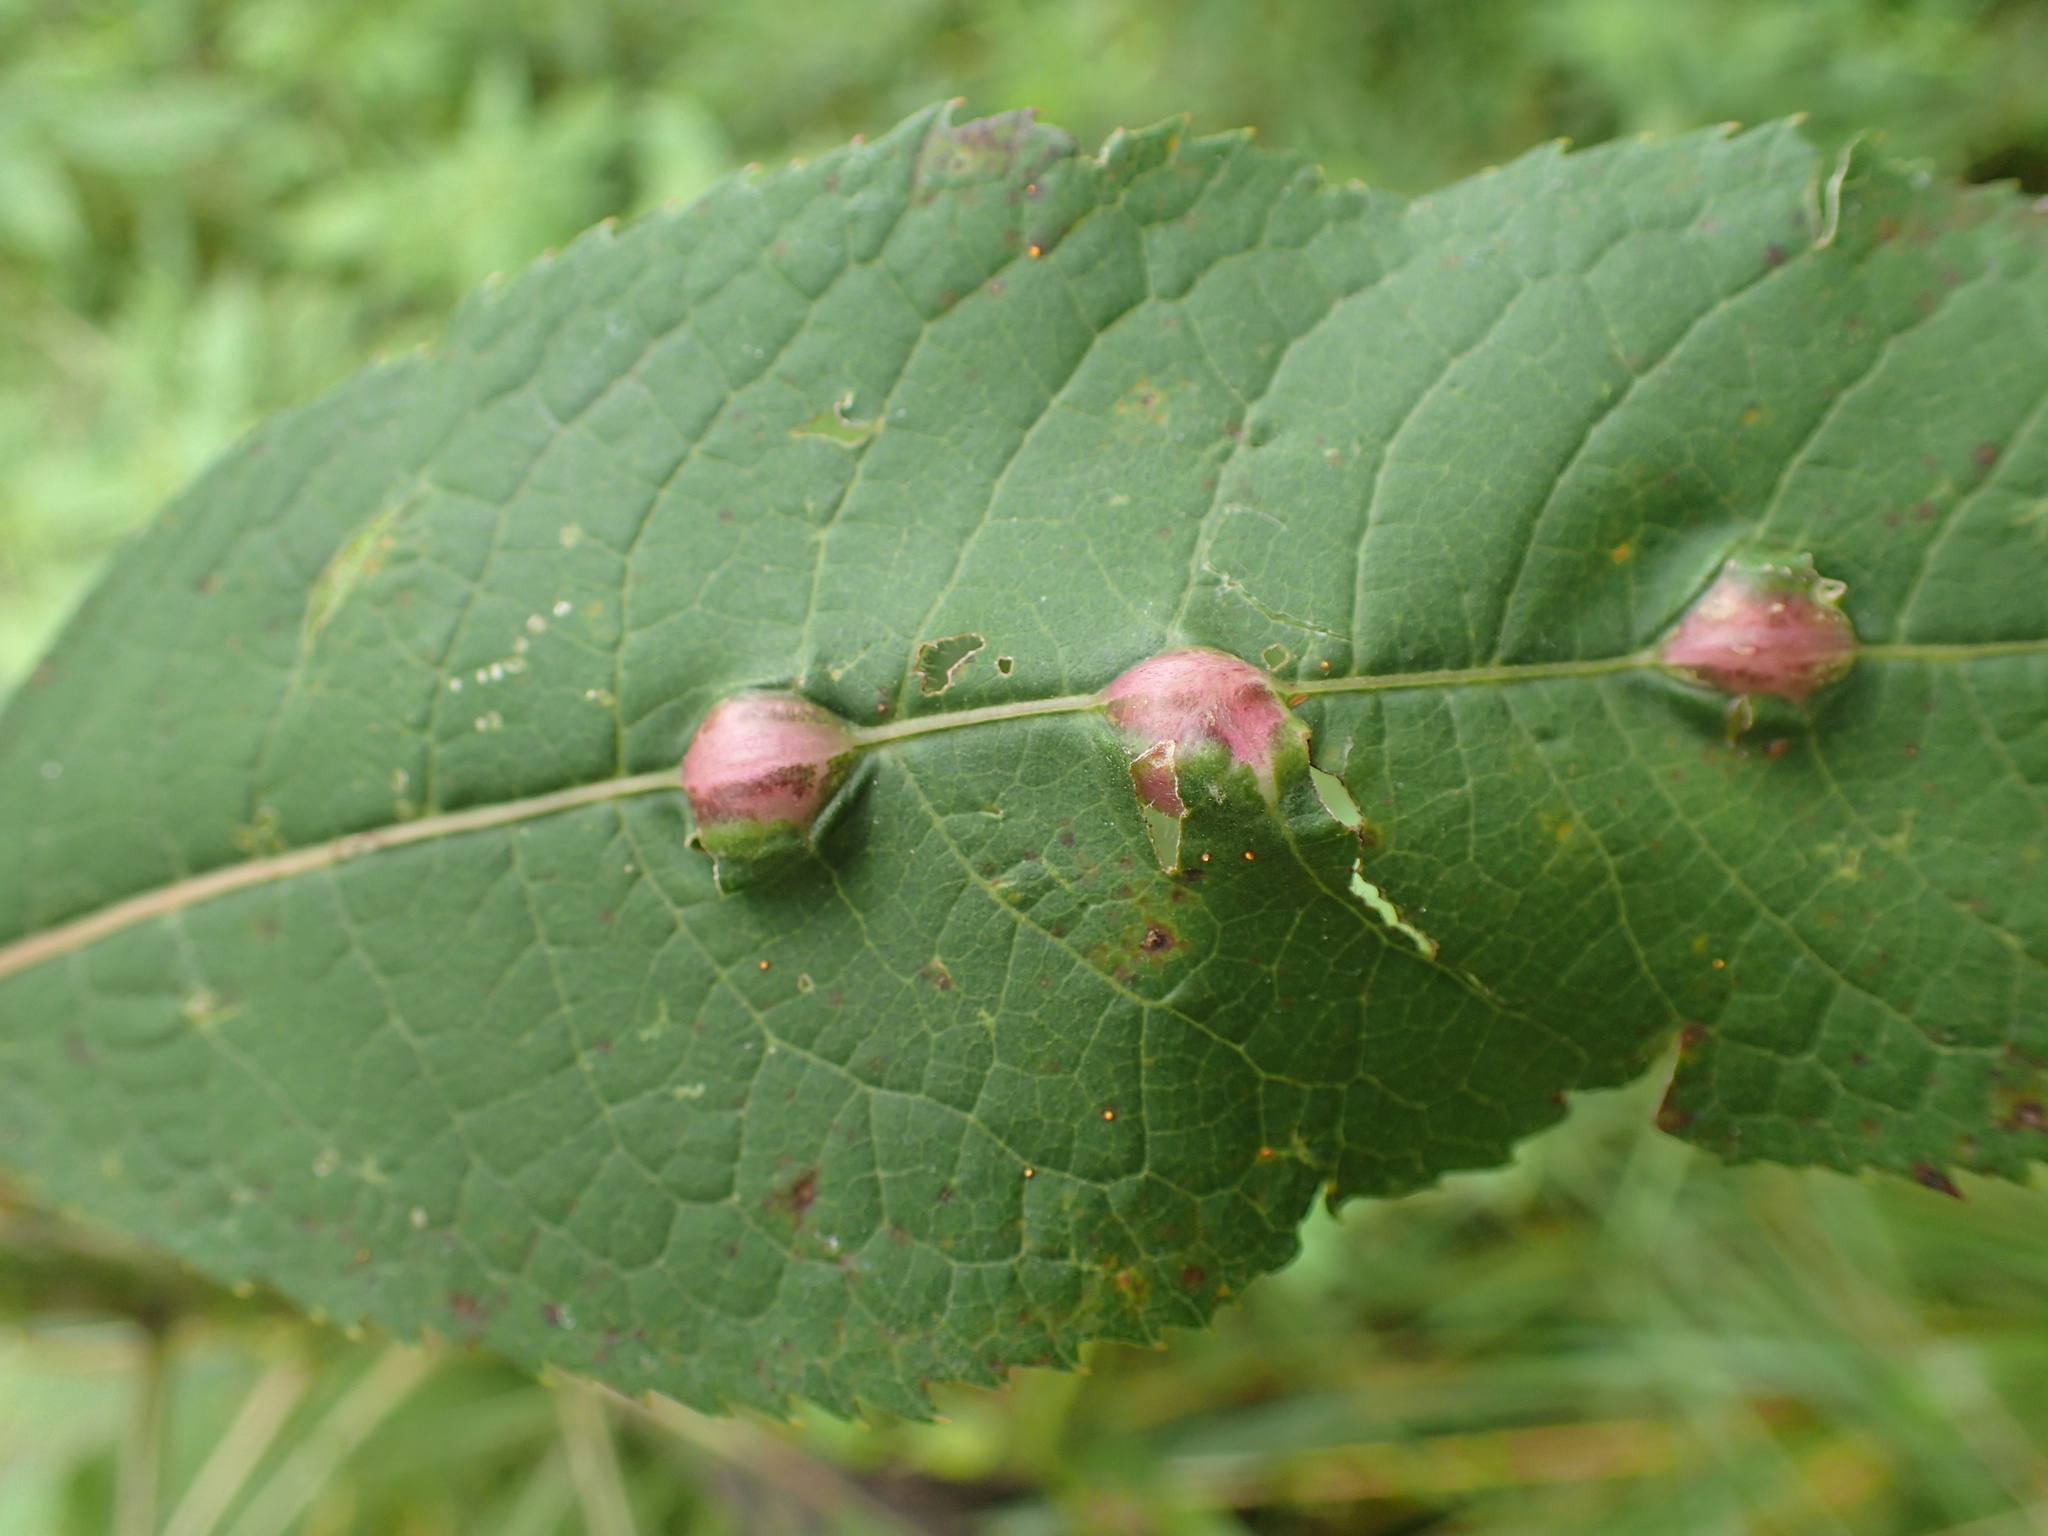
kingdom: Animalia
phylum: Arthropoda
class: Insecta
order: Diptera
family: Cecidomyiidae
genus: Neolasioptera
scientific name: Neolasioptera vernoniae
